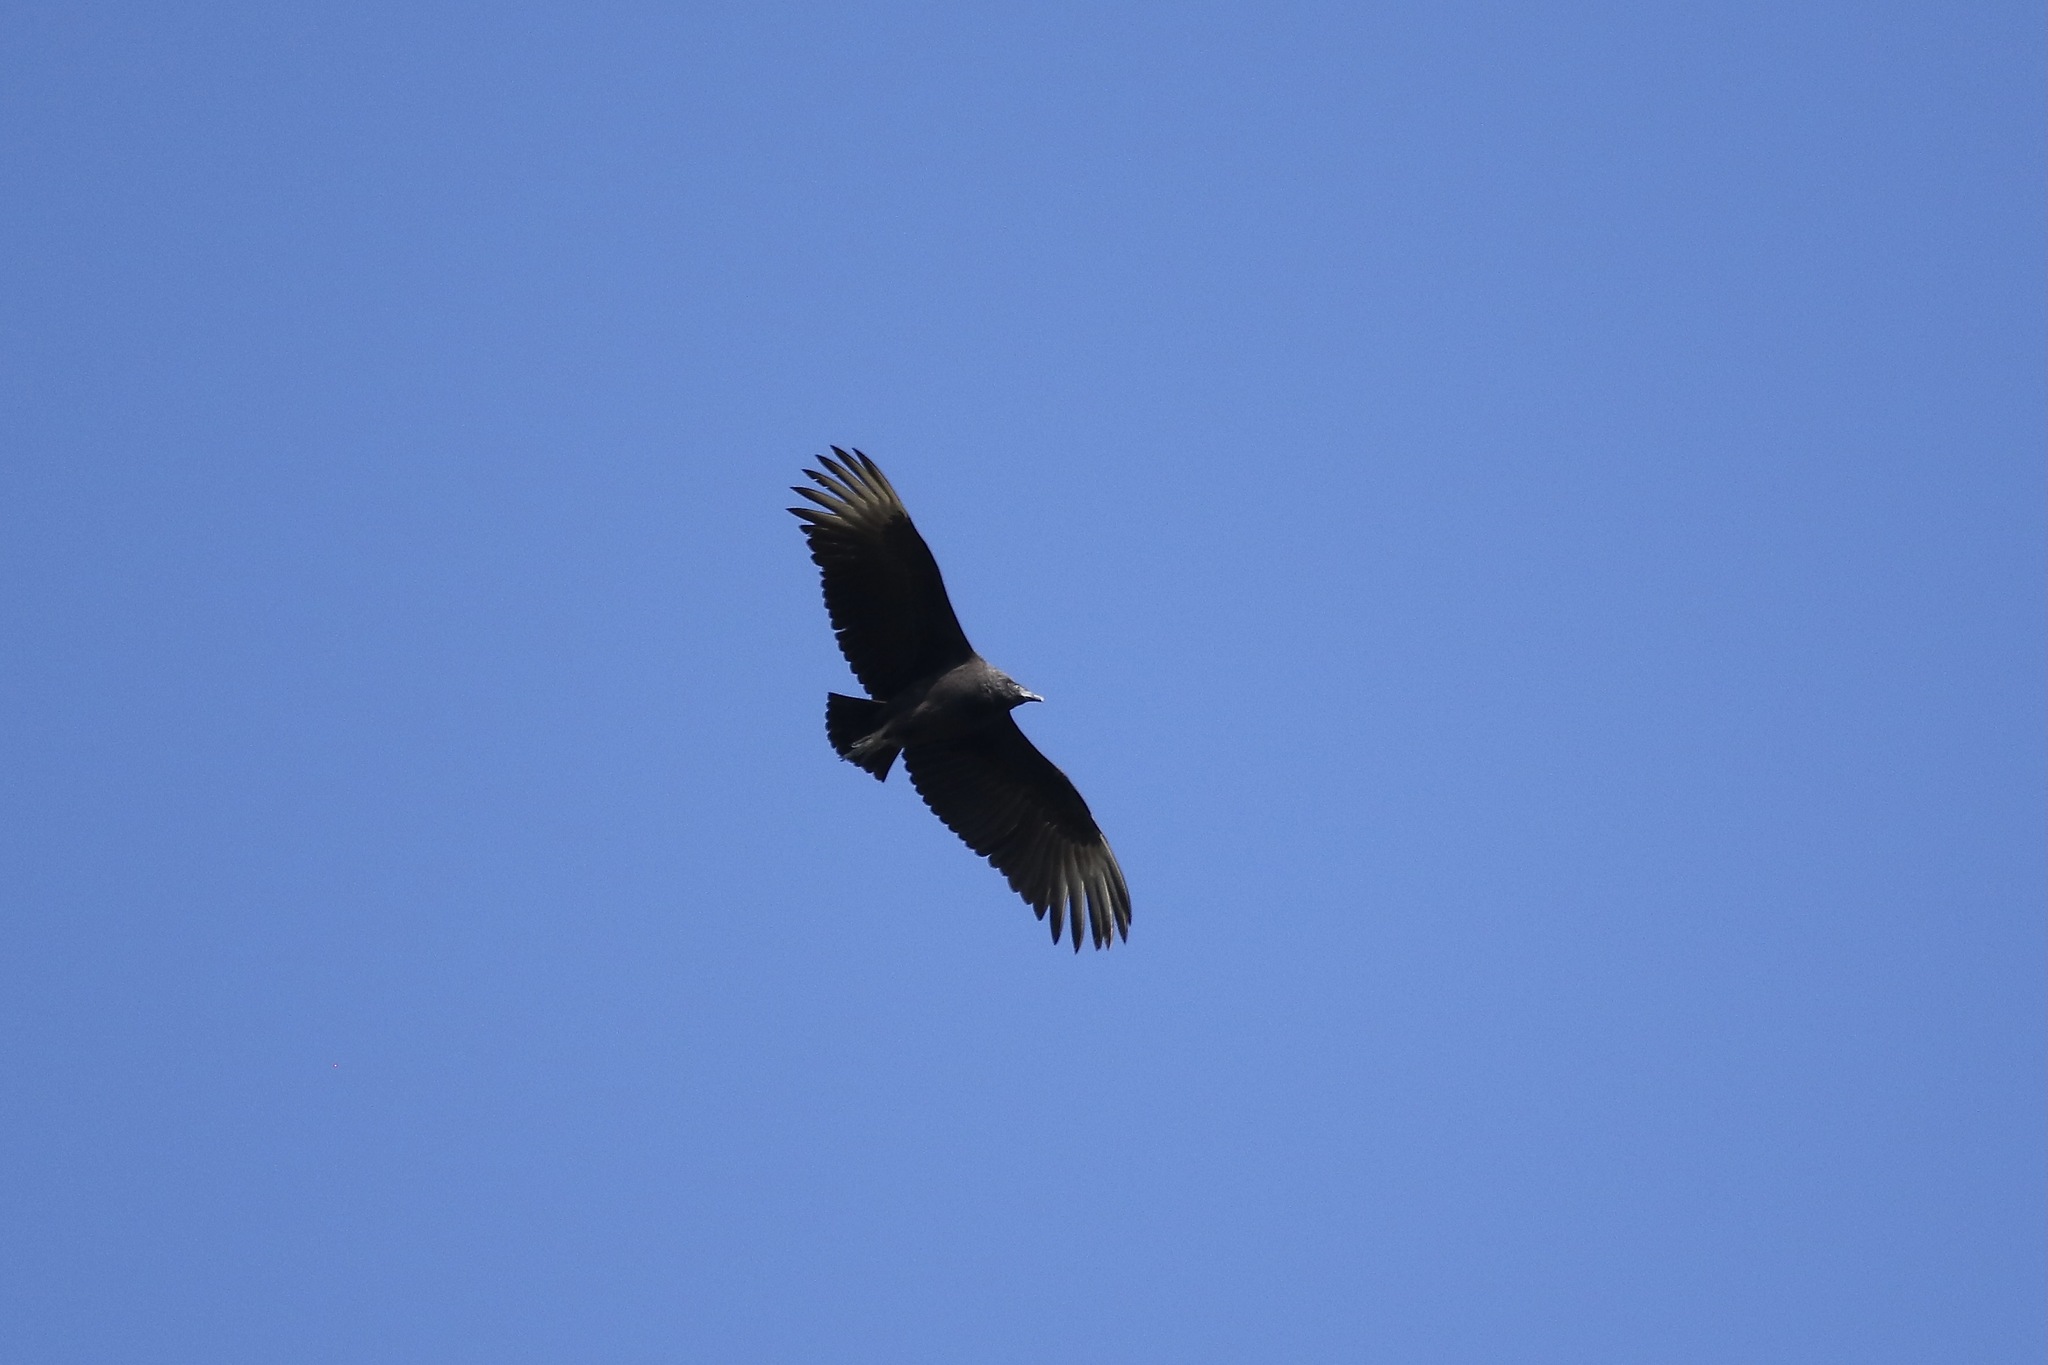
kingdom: Animalia
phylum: Chordata
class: Aves
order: Accipitriformes
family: Cathartidae
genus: Coragyps
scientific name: Coragyps atratus
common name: Black vulture
